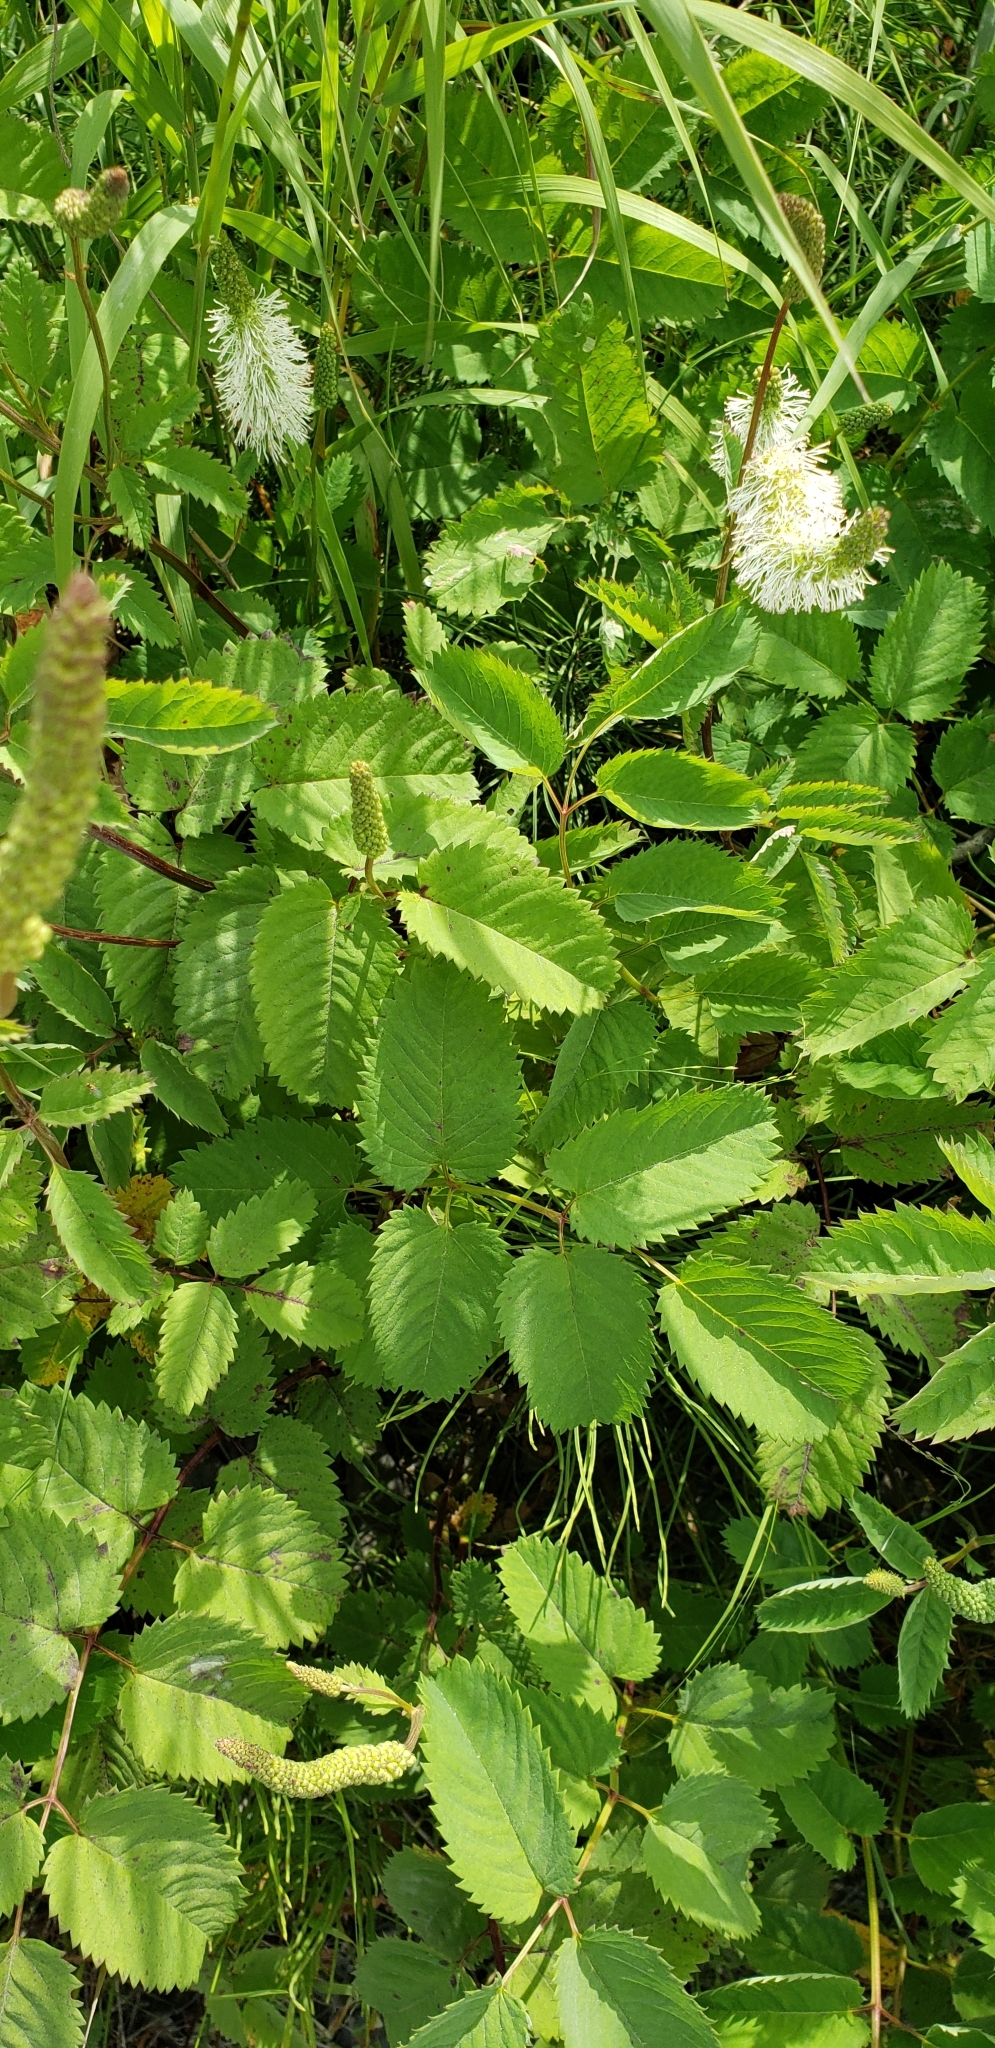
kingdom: Plantae
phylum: Tracheophyta
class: Magnoliopsida
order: Rosales
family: Rosaceae
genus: Sanguisorba
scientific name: Sanguisorba stipulata
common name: Sitka burnet
